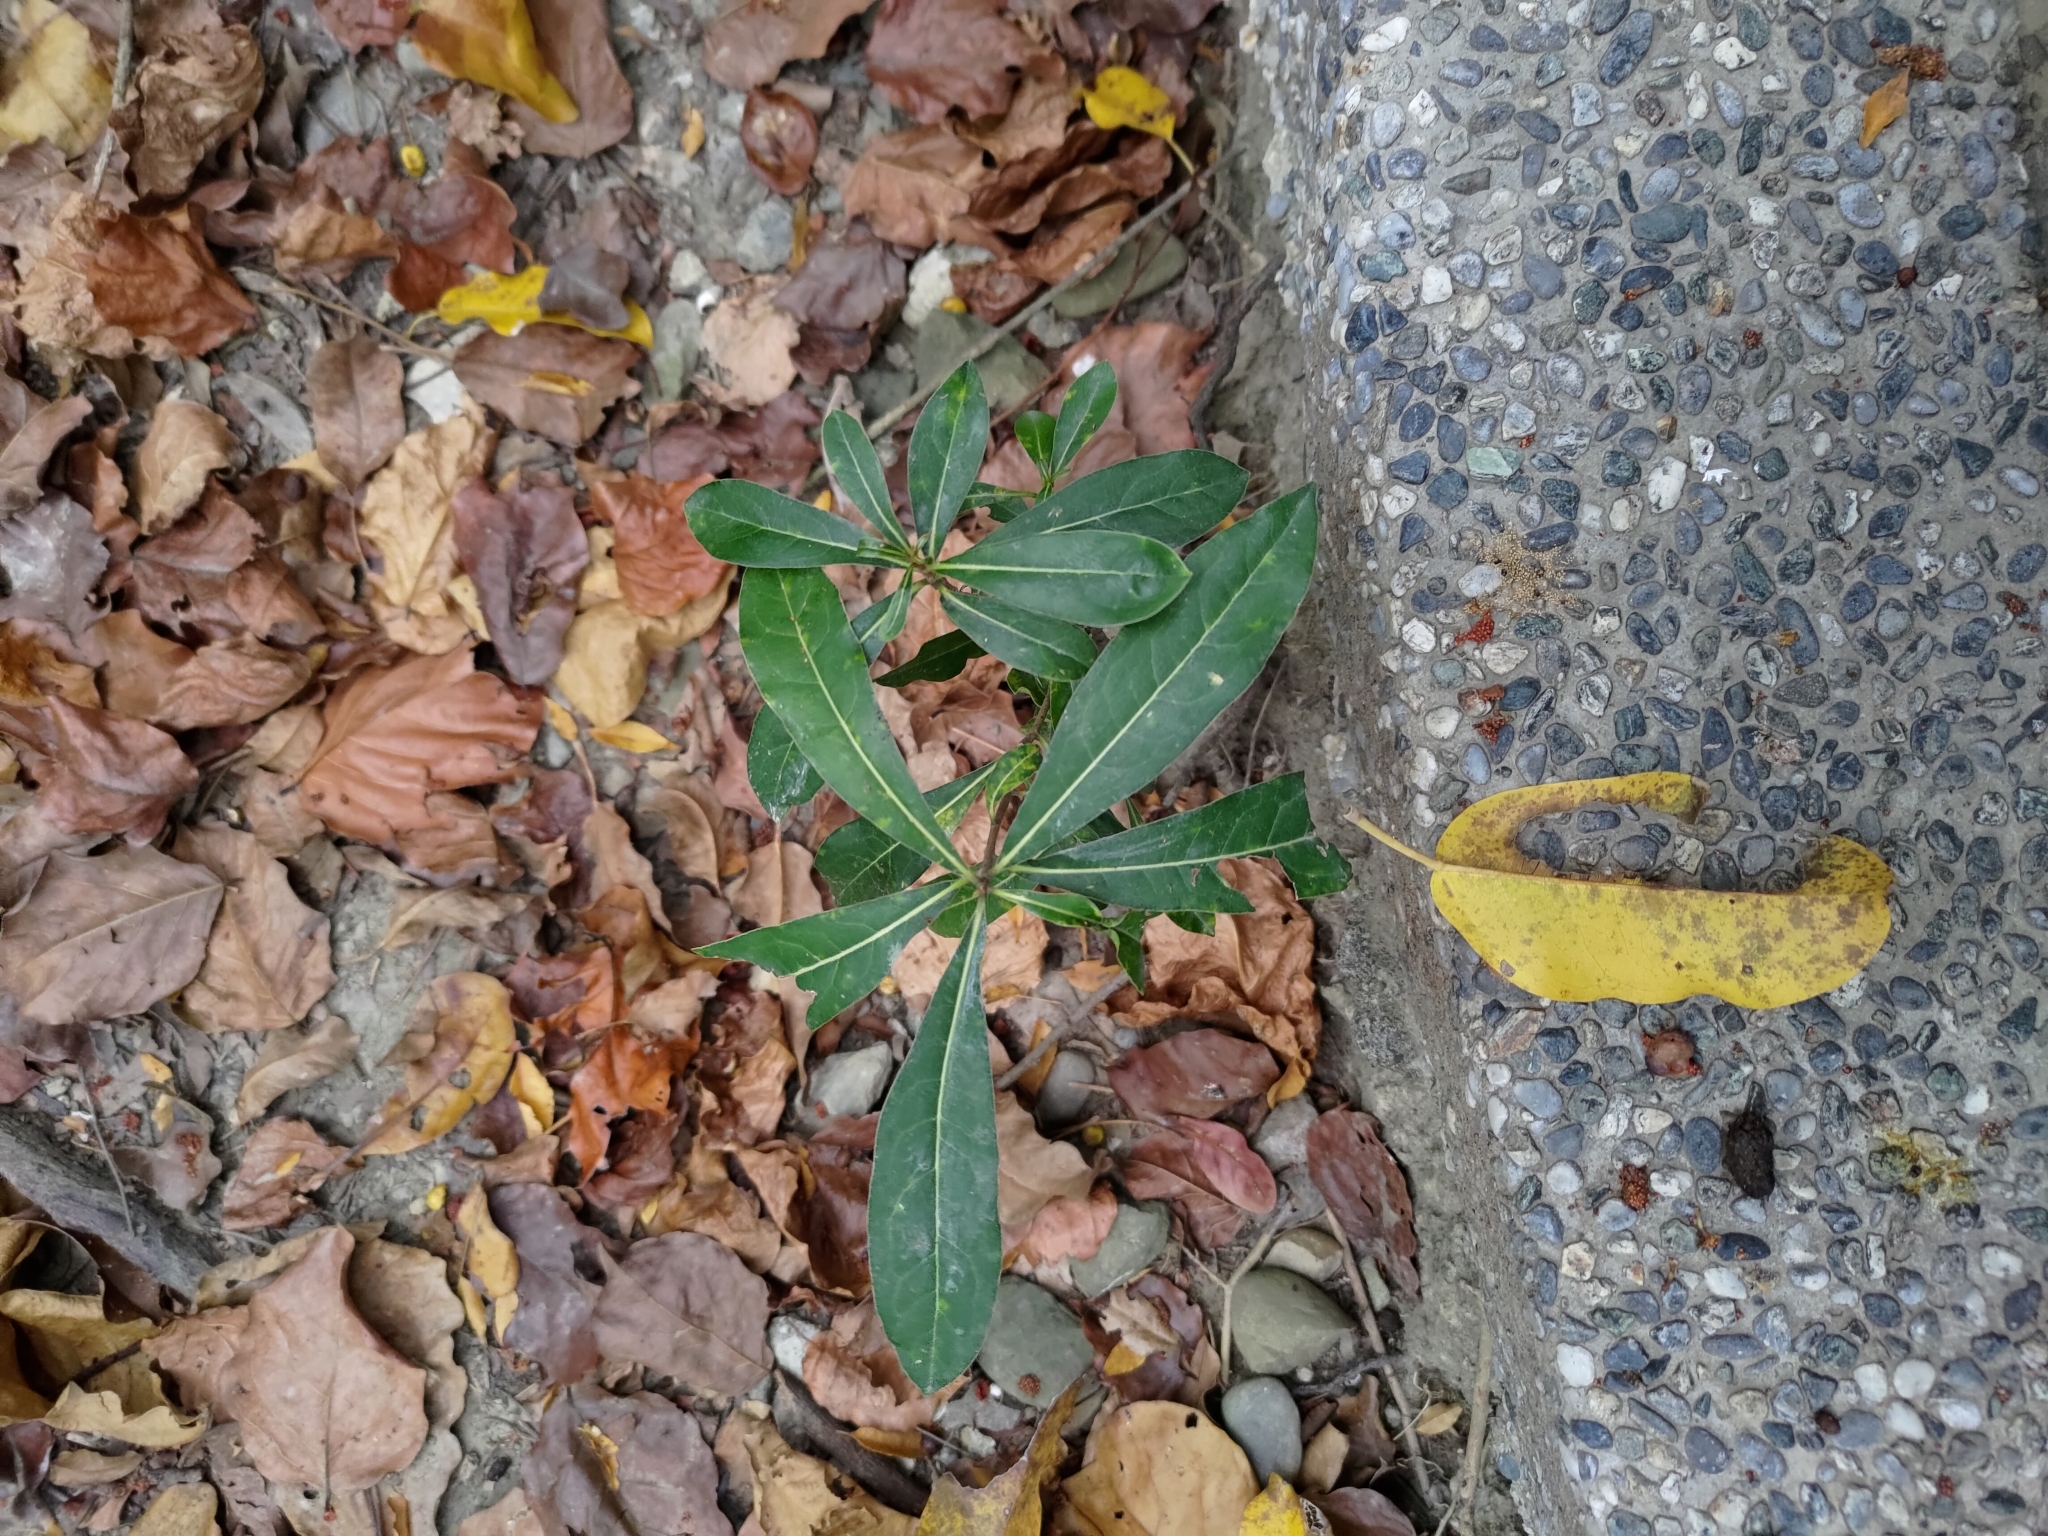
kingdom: Plantae
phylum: Tracheophyta
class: Magnoliopsida
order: Apiales
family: Pittosporaceae
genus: Pittosporum
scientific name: Pittosporum pentandrum
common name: Taiwanese cheesewood
